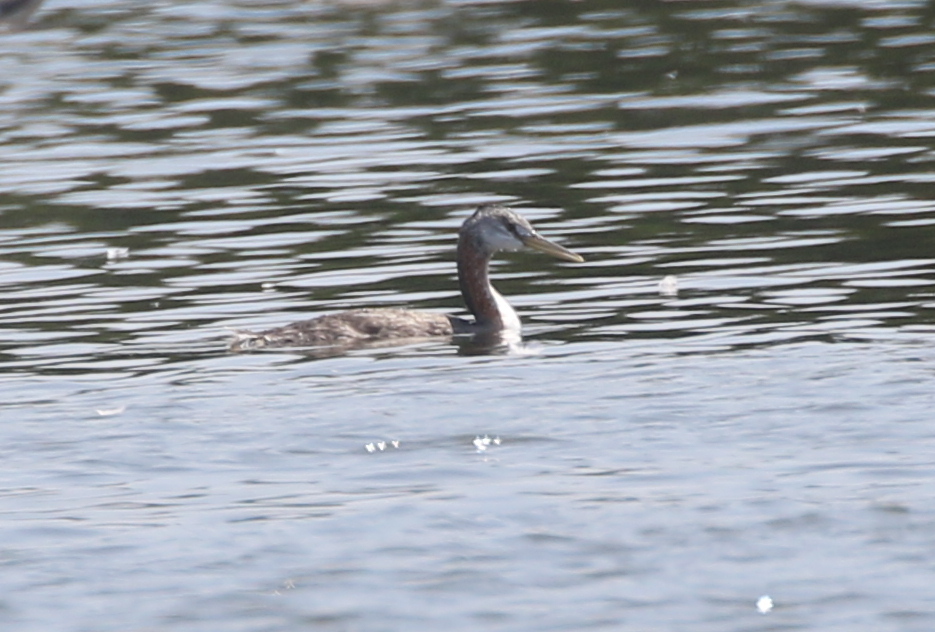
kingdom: Animalia
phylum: Chordata
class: Aves
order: Podicipediformes
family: Podicipedidae
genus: Podiceps
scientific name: Podiceps major
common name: Great grebe
